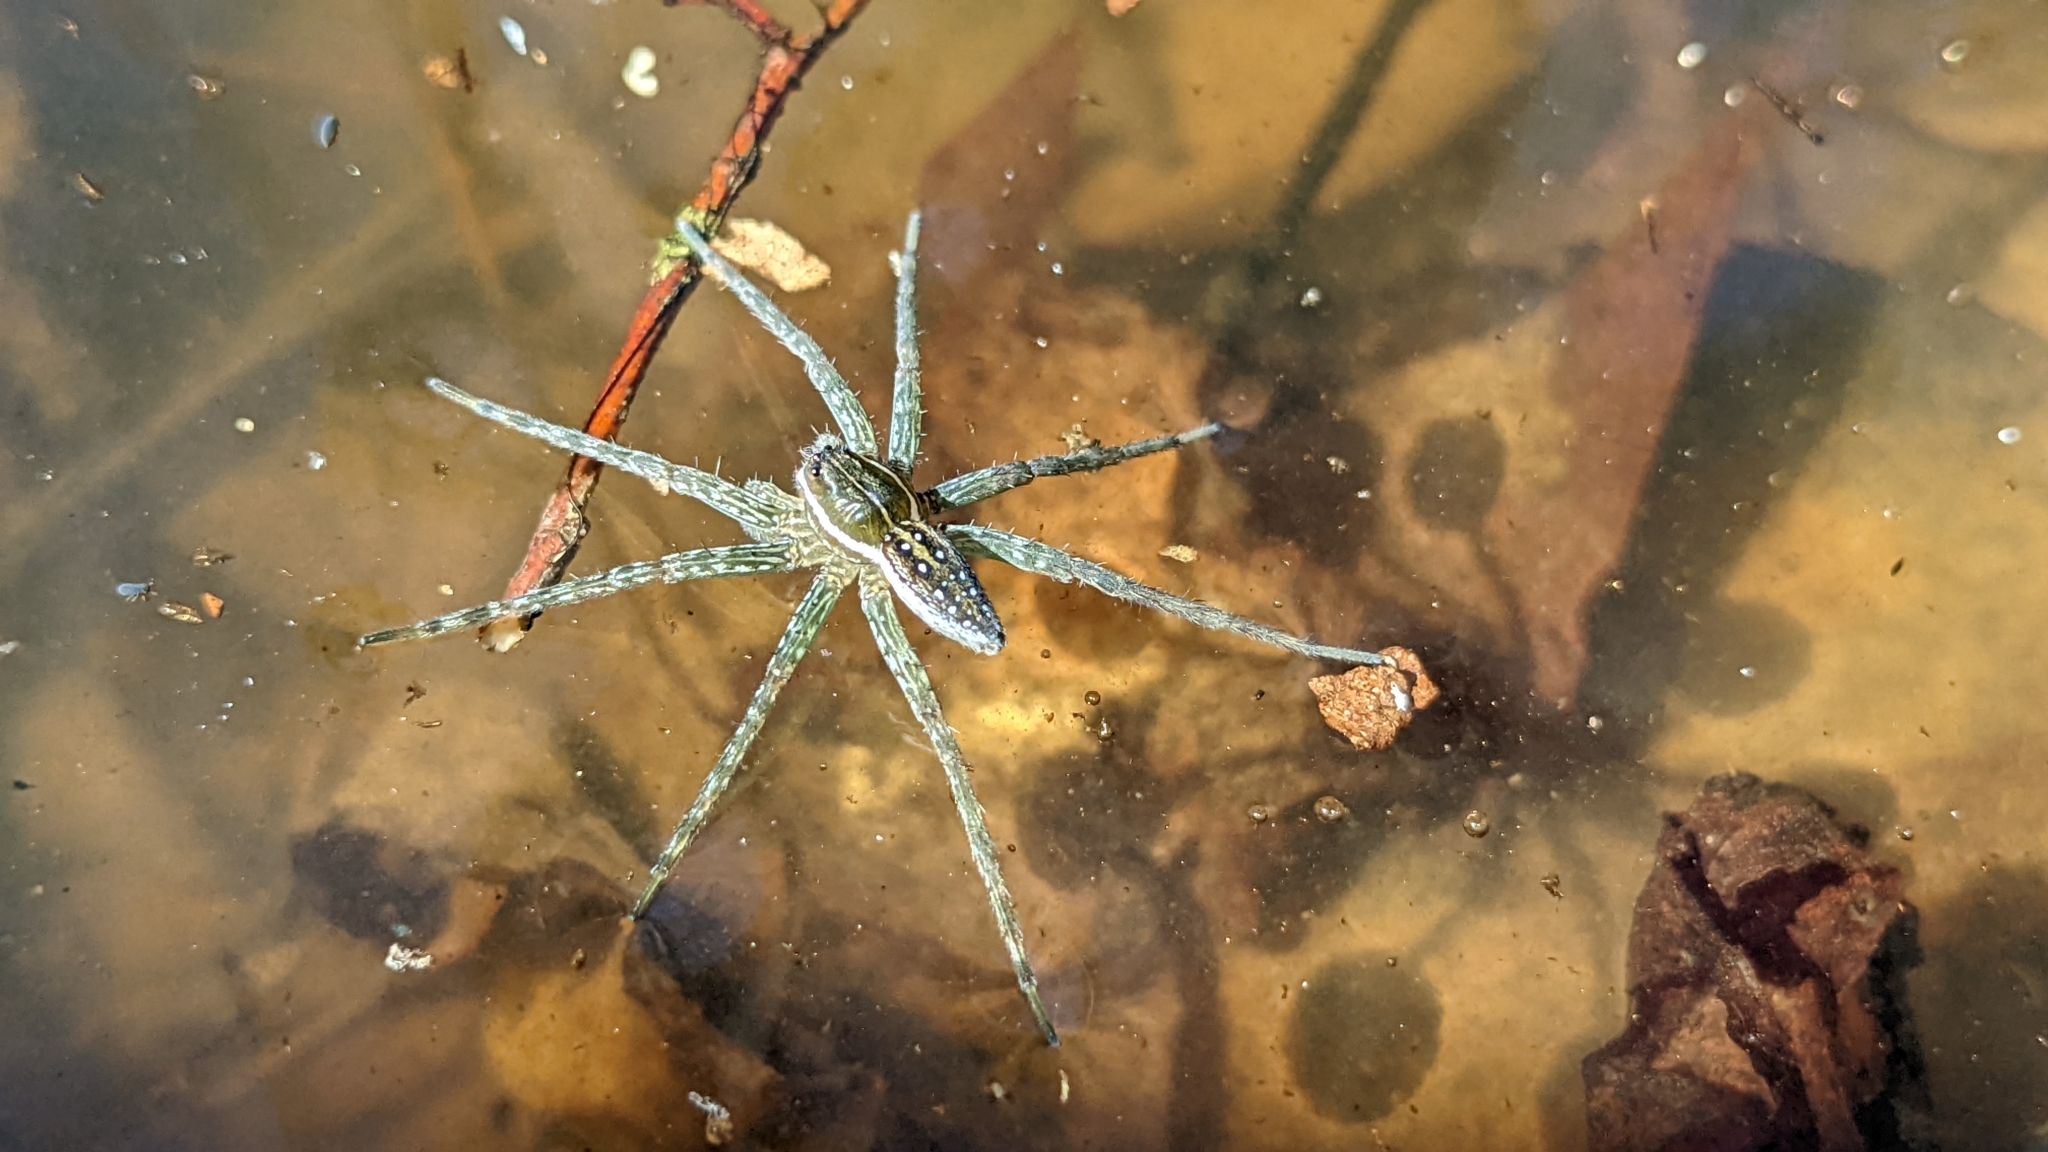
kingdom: Animalia
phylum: Arthropoda
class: Arachnida
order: Araneae
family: Pisauridae
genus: Dolomedes
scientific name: Dolomedes triton
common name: Six-spotted fishing spider
